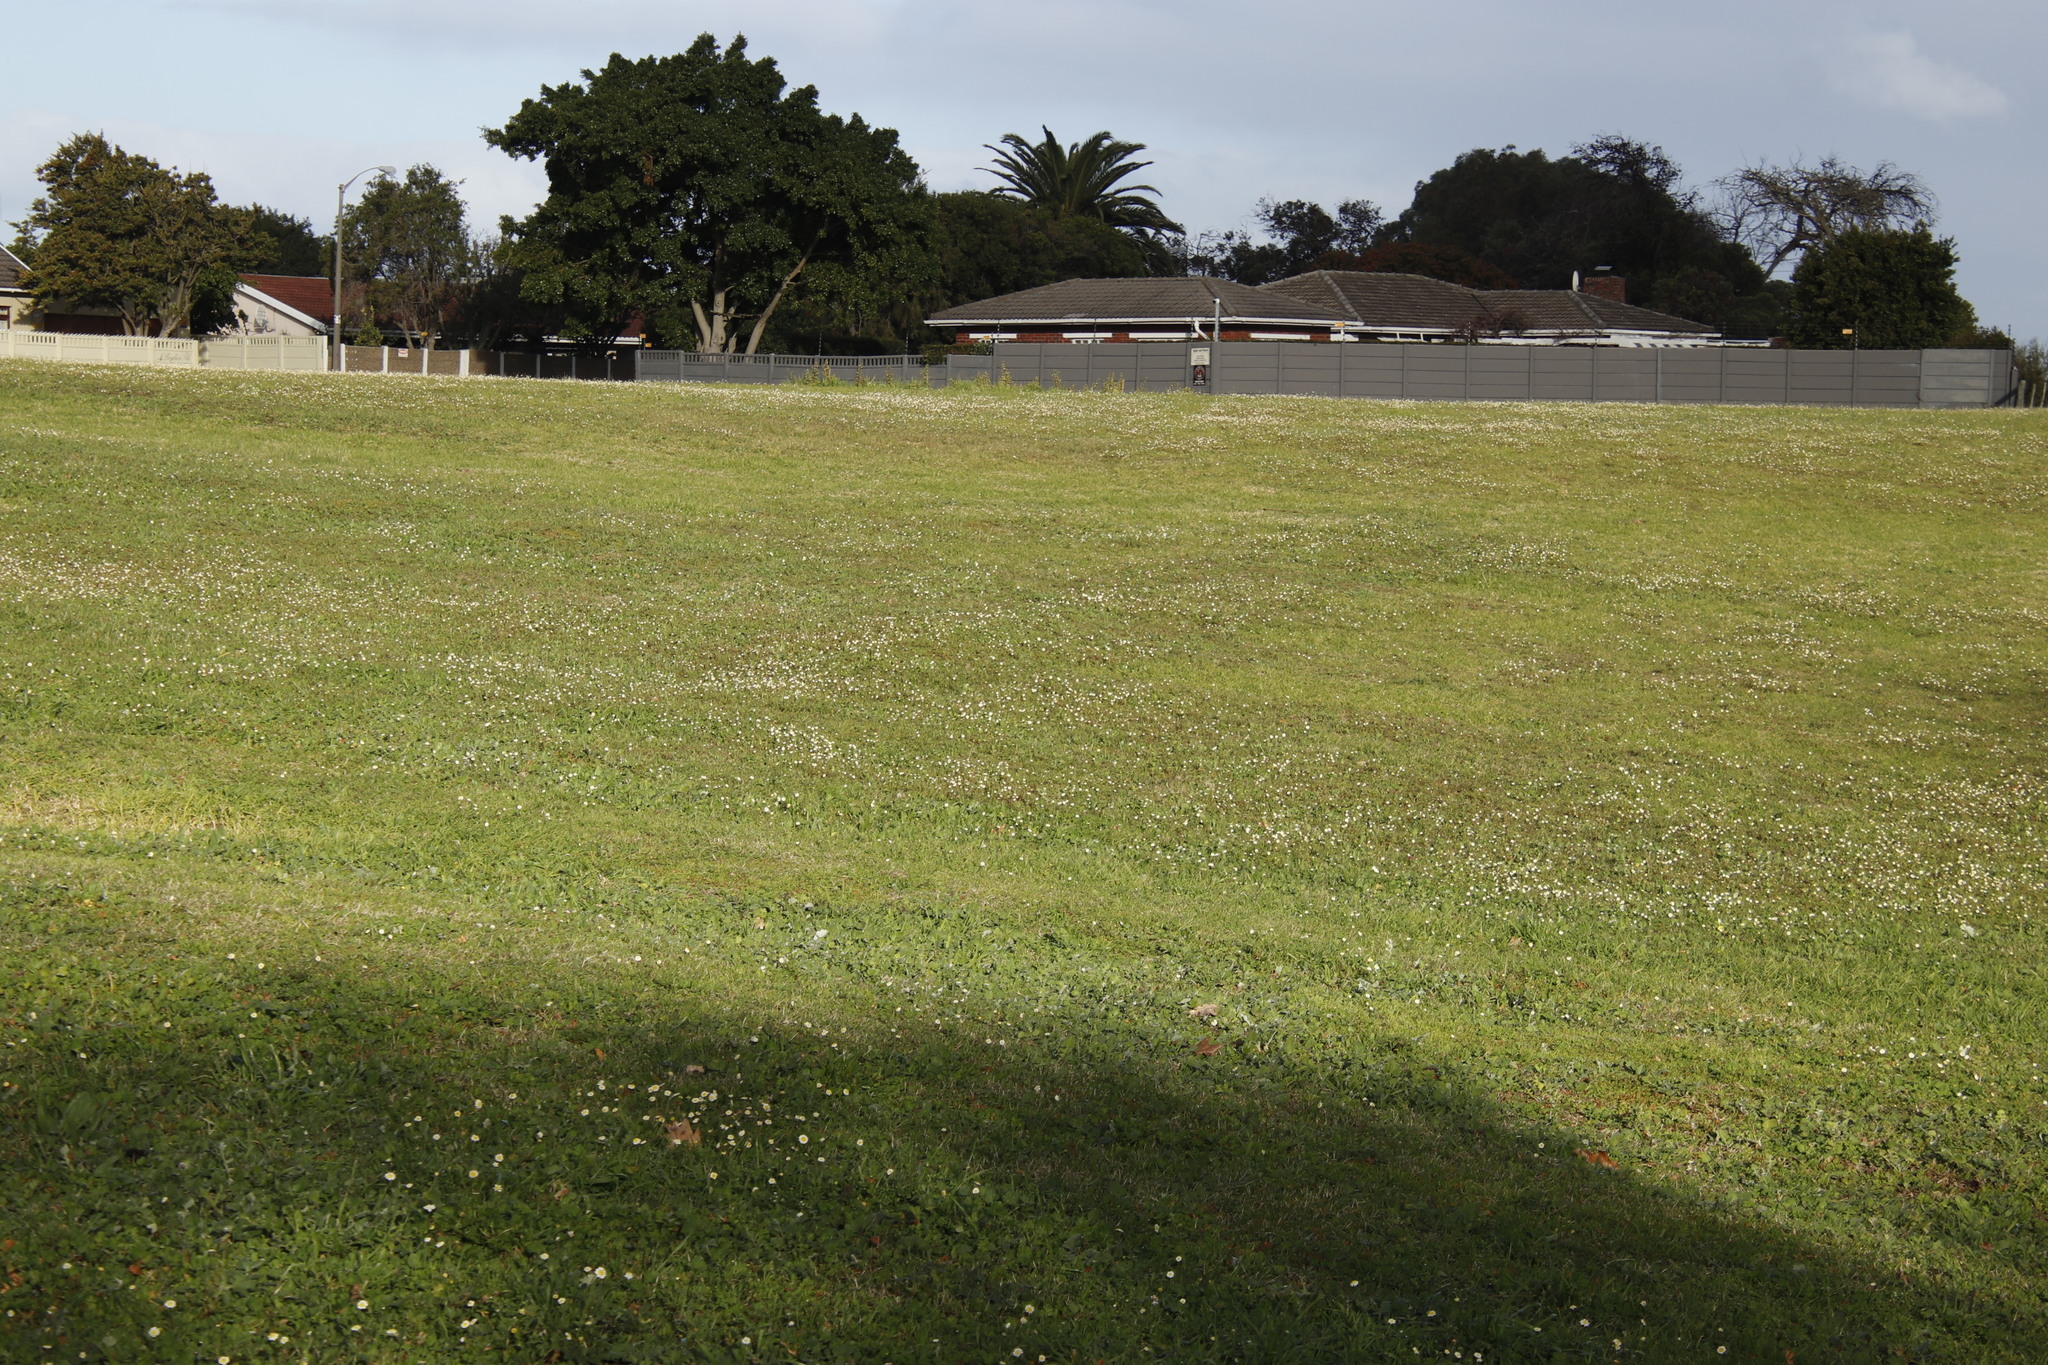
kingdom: Plantae
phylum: Tracheophyta
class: Magnoliopsida
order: Asterales
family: Asteraceae
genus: Cotula
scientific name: Cotula turbinata
